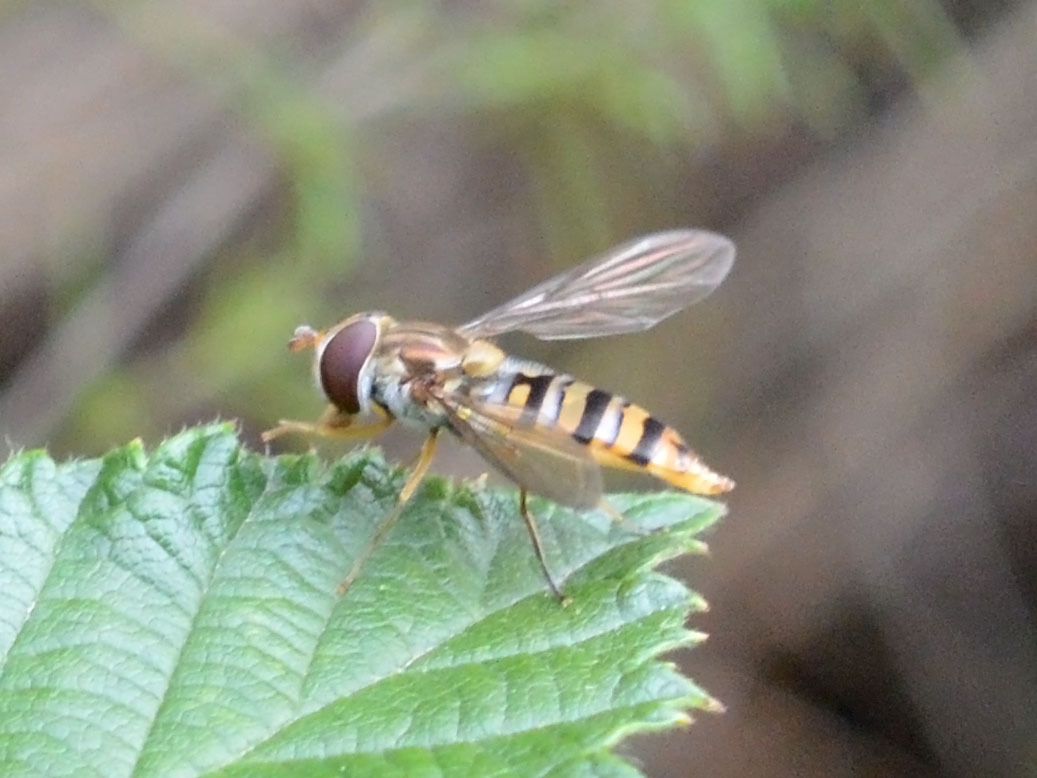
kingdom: Animalia
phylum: Arthropoda
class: Insecta
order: Diptera
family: Syrphidae
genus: Episyrphus
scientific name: Episyrphus balteatus
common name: Marmalade hoverfly
